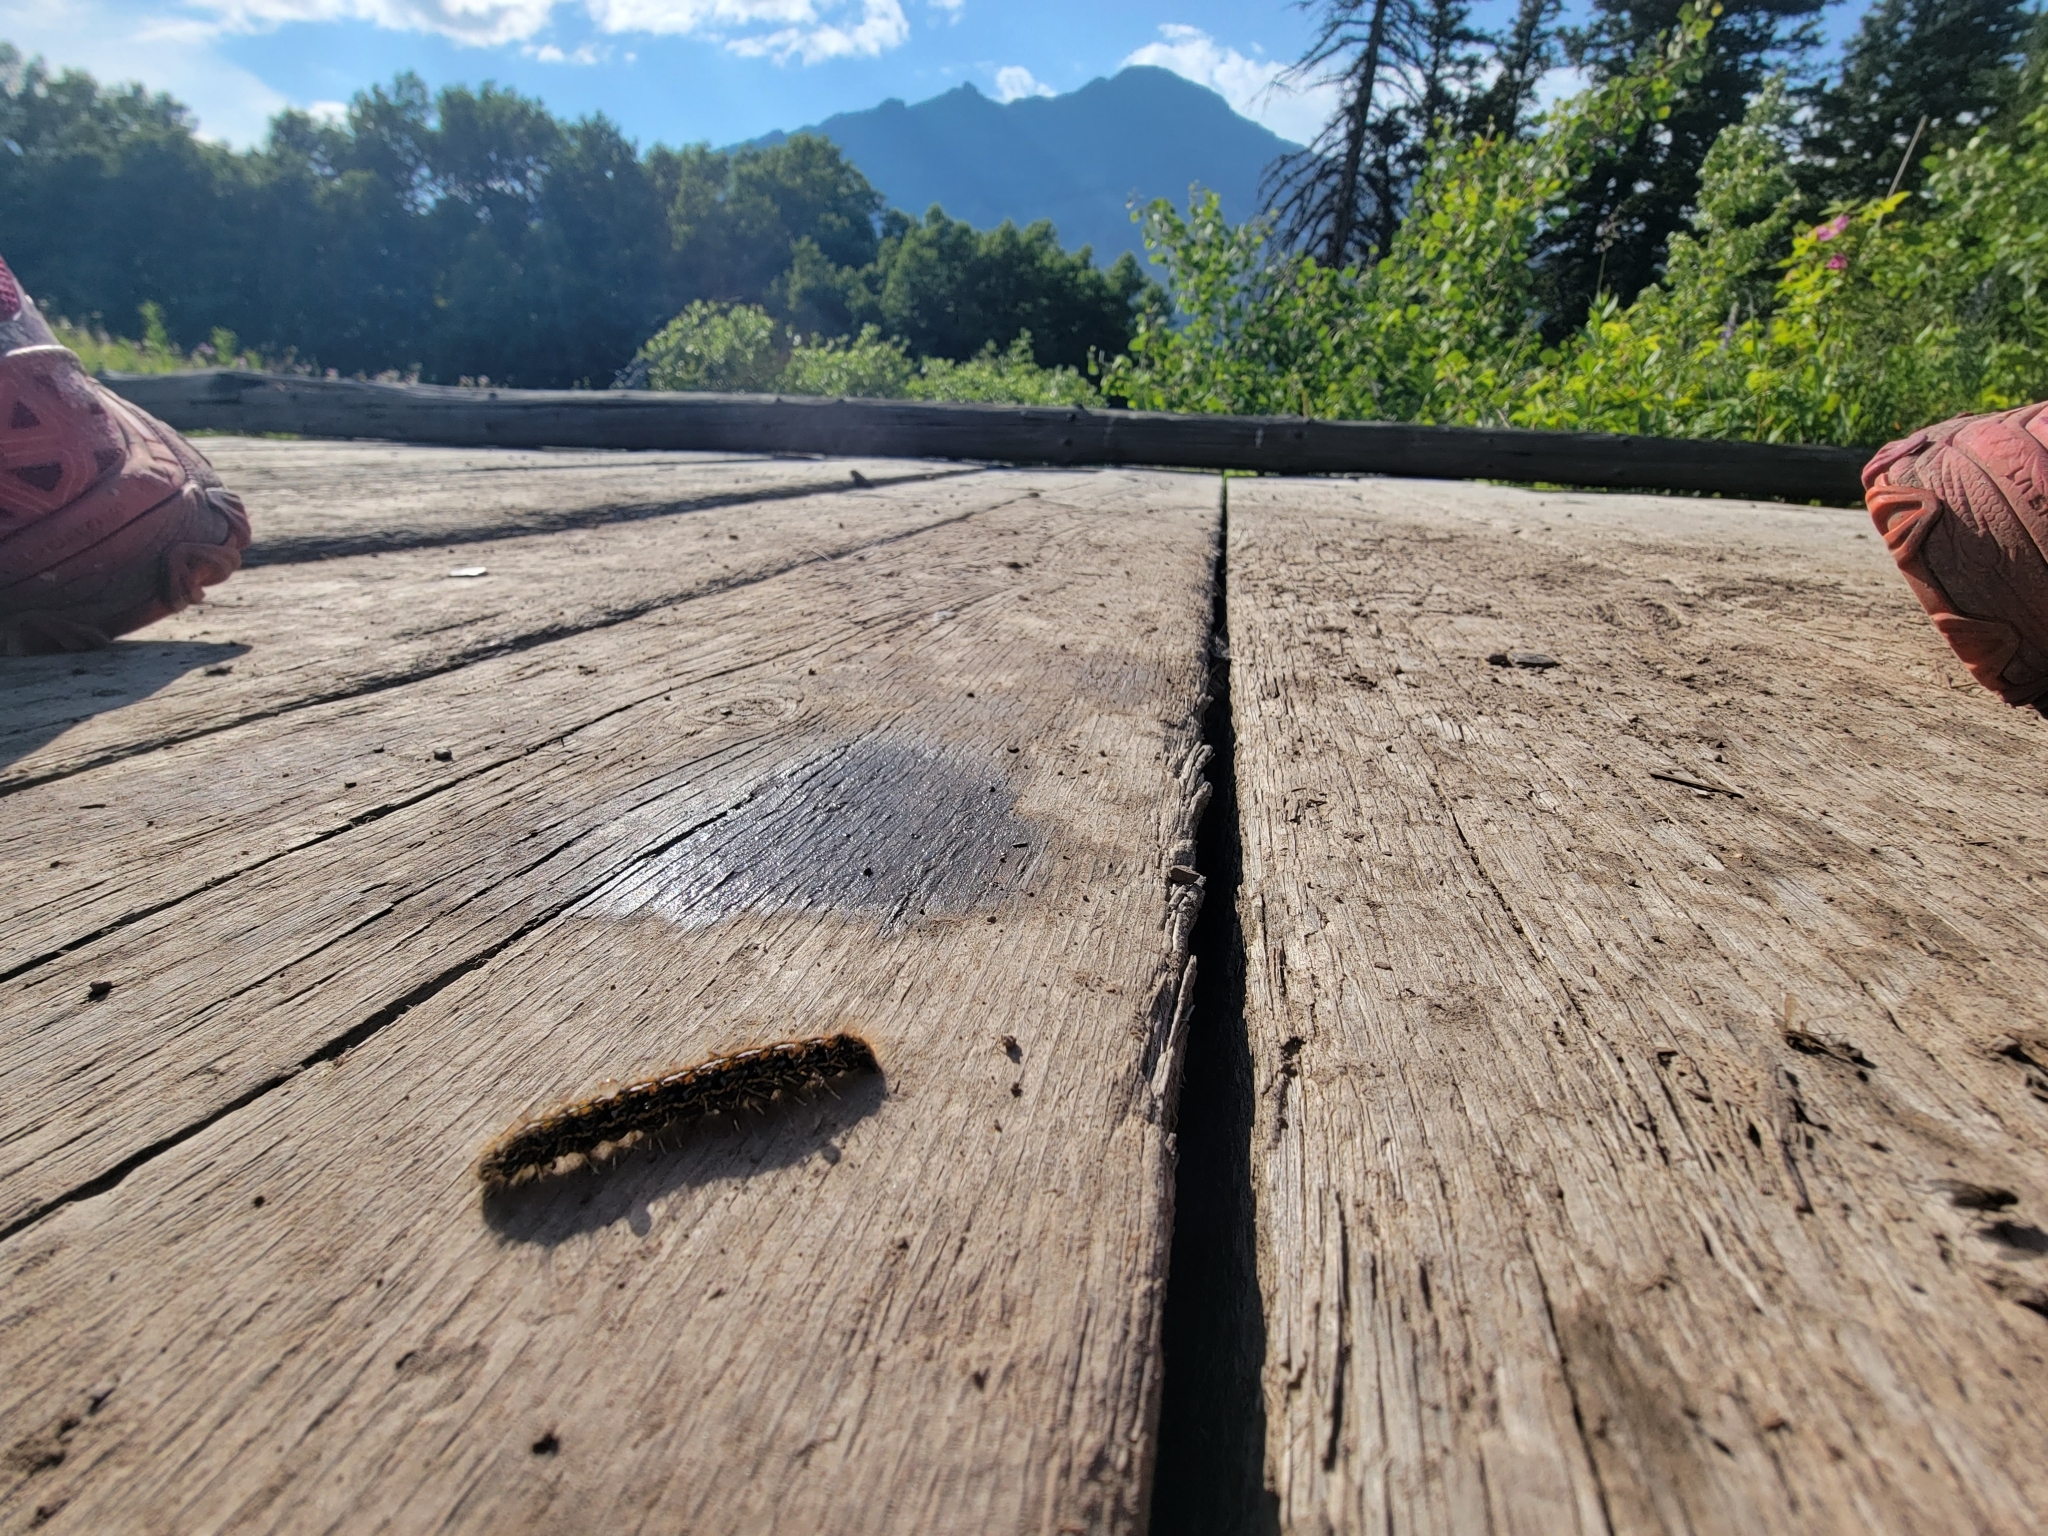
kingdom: Animalia
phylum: Arthropoda
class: Insecta
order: Lepidoptera
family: Lasiocampidae
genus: Malacosoma
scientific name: Malacosoma californica
